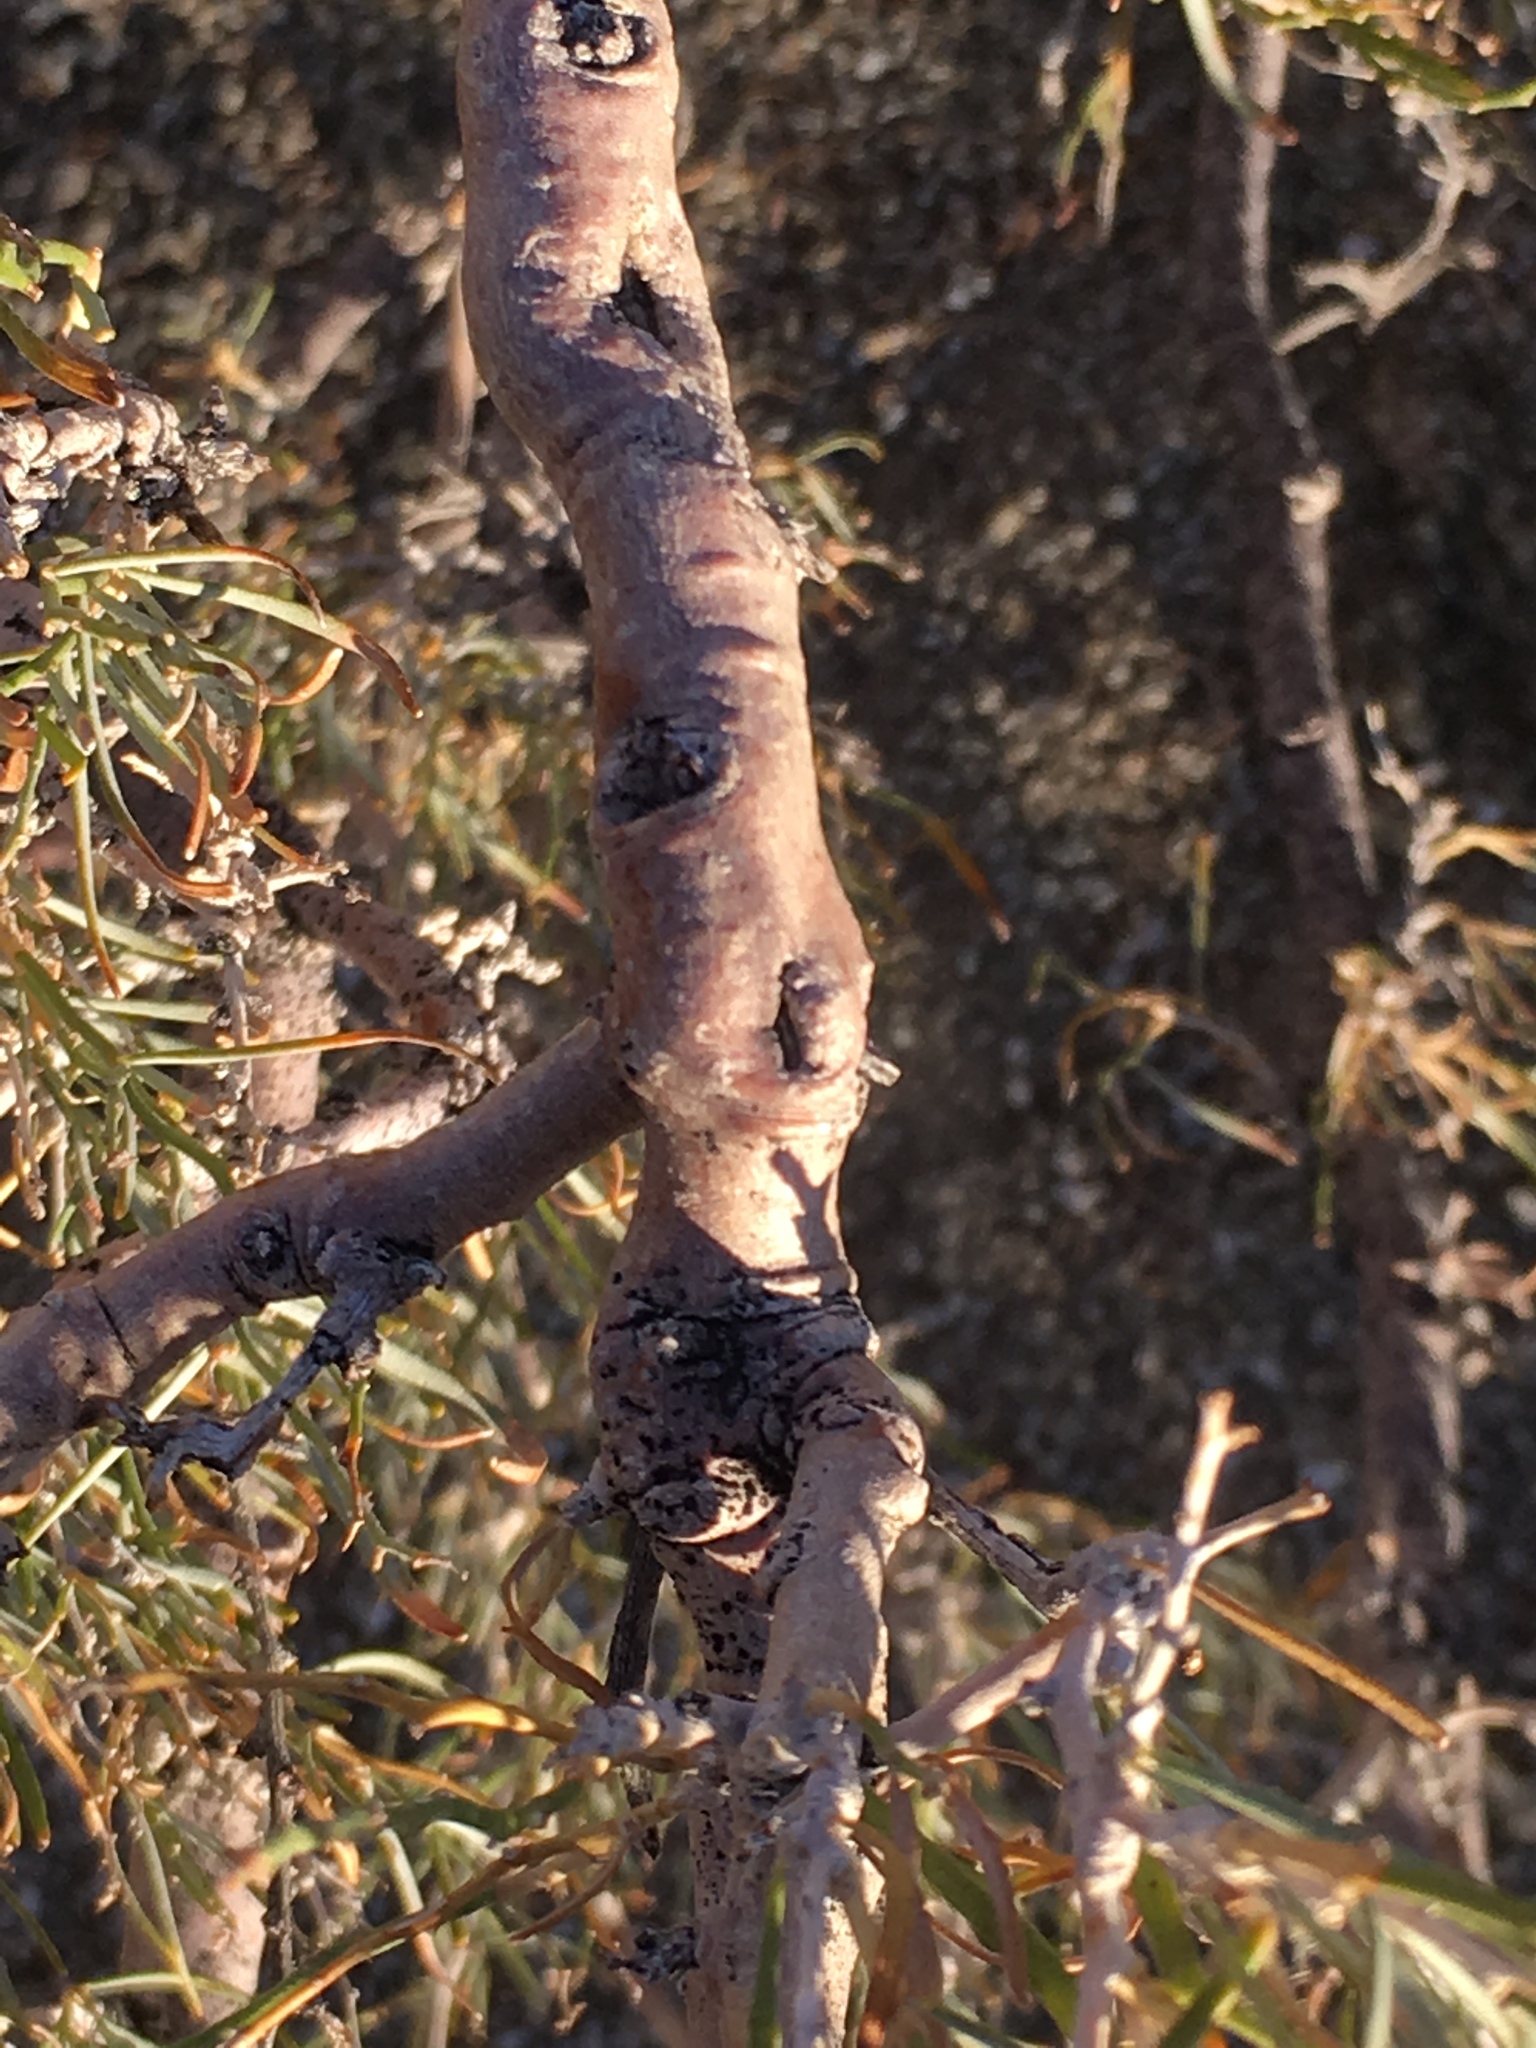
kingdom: Plantae
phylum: Tracheophyta
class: Magnoliopsida
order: Fabales
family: Fabaceae
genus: Psorothamnus
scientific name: Psorothamnus schottii
